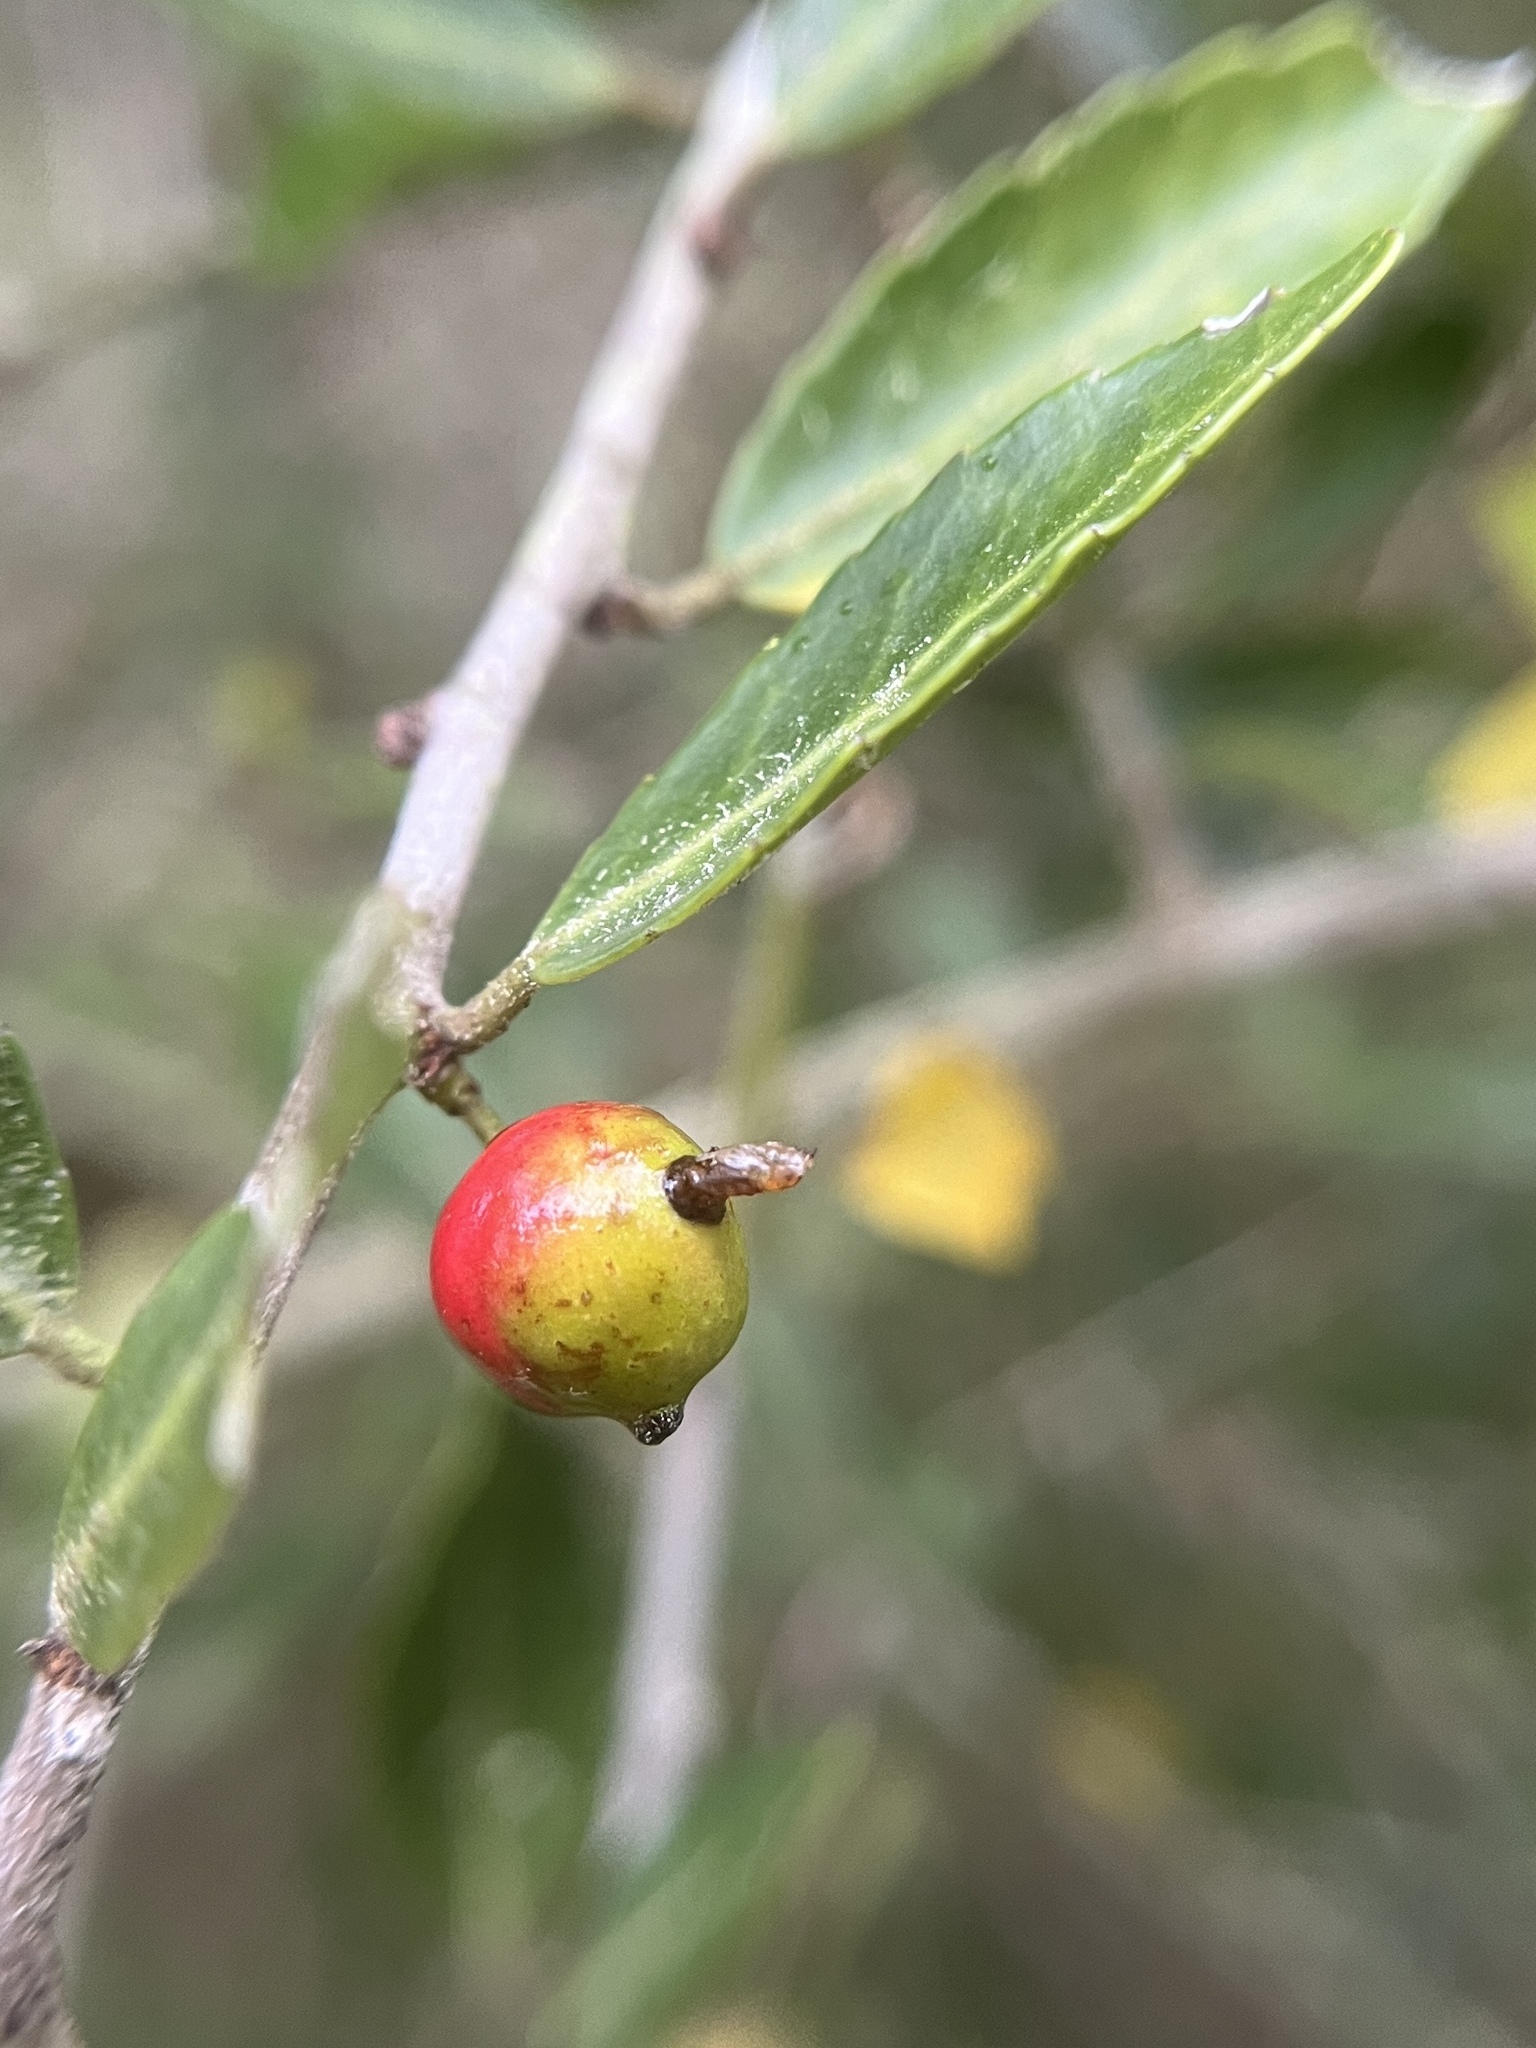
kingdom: Animalia
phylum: Arthropoda
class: Insecta
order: Diptera
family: Cecidomyiidae
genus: Asphondylia
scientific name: Asphondylia ilicicola
